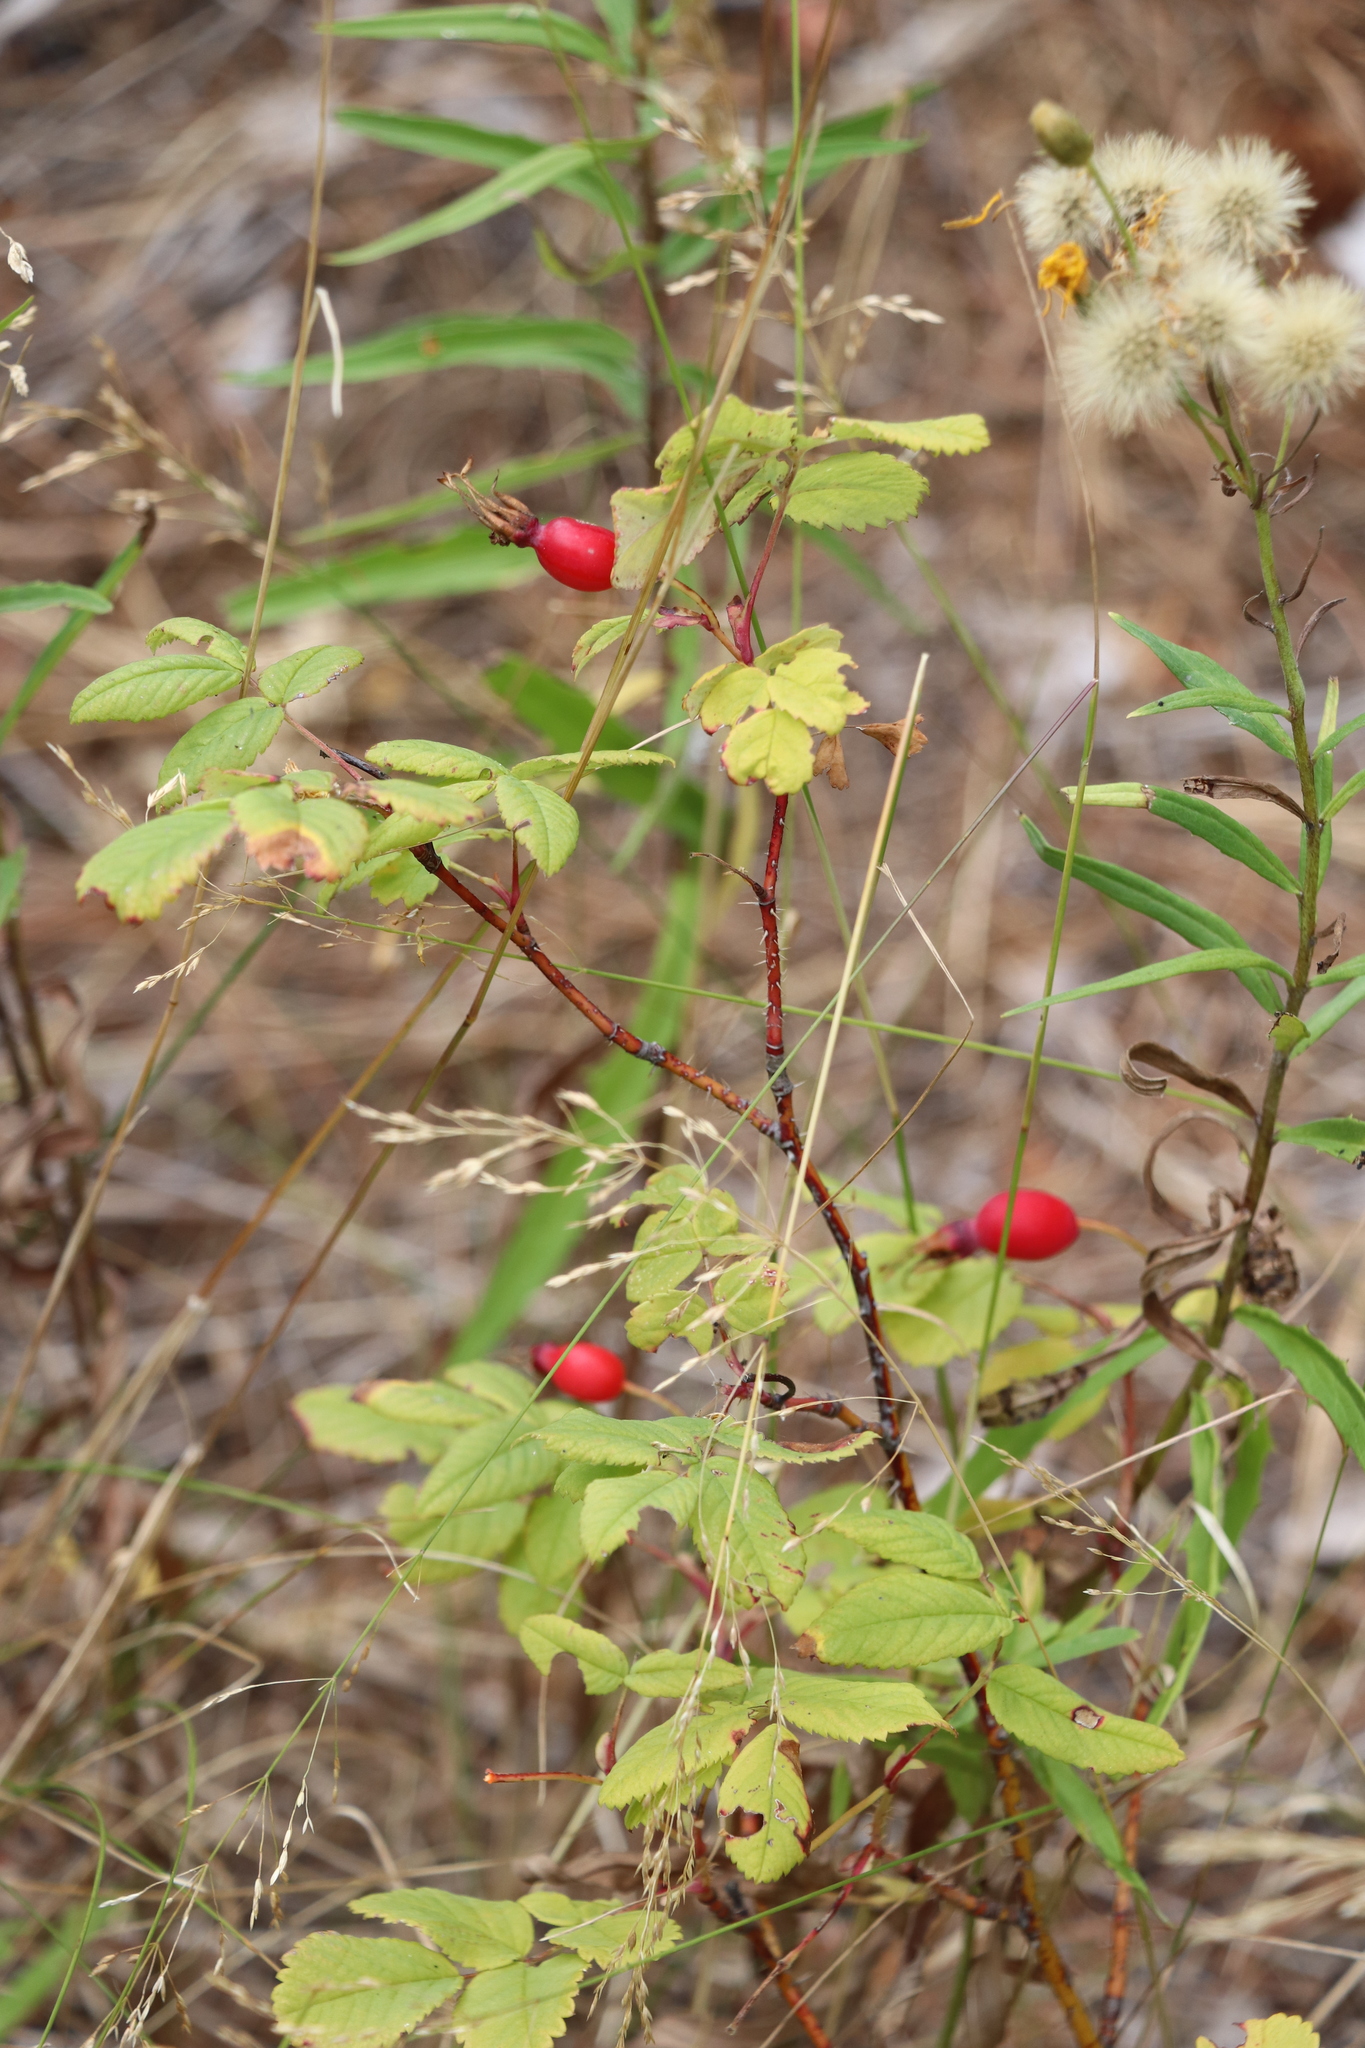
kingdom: Plantae
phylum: Tracheophyta
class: Magnoliopsida
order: Rosales
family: Rosaceae
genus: Rosa
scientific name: Rosa acicularis
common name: Prickly rose
